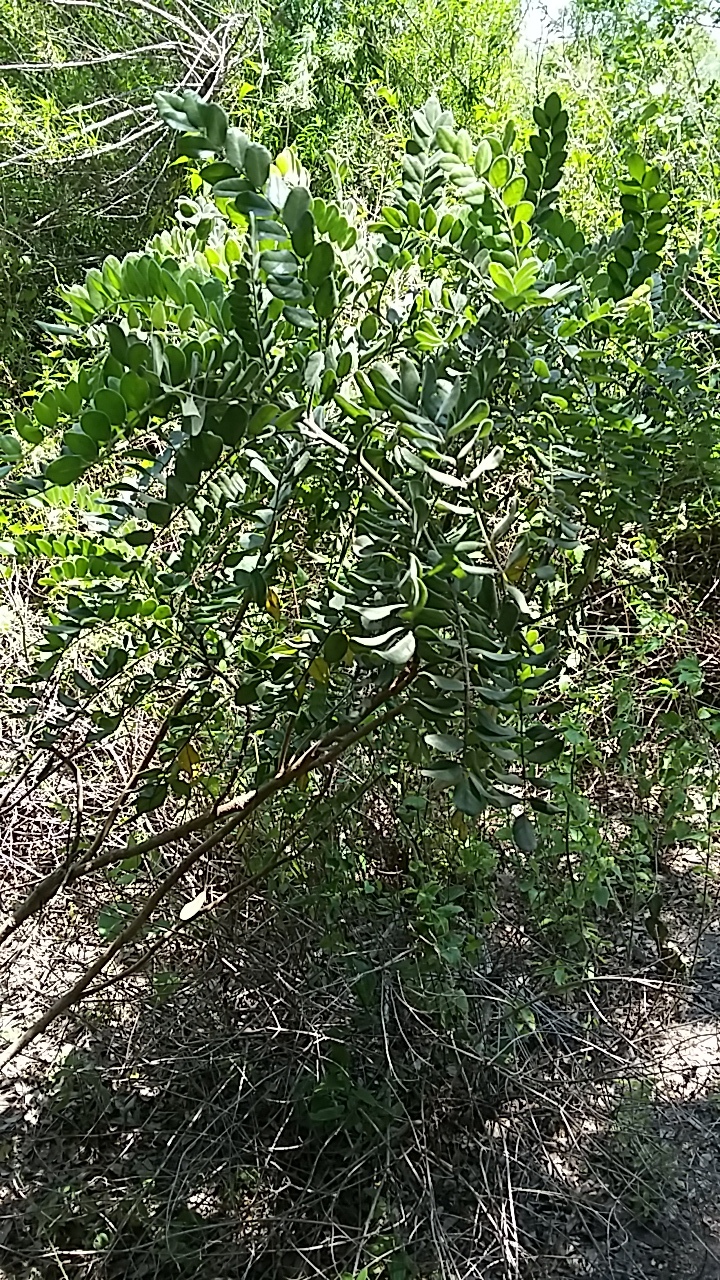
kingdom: Plantae
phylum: Tracheophyta
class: Magnoliopsida
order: Fabales
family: Fabaceae
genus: Sophora
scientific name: Sophora tomentosa
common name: Yellow necklacepod
